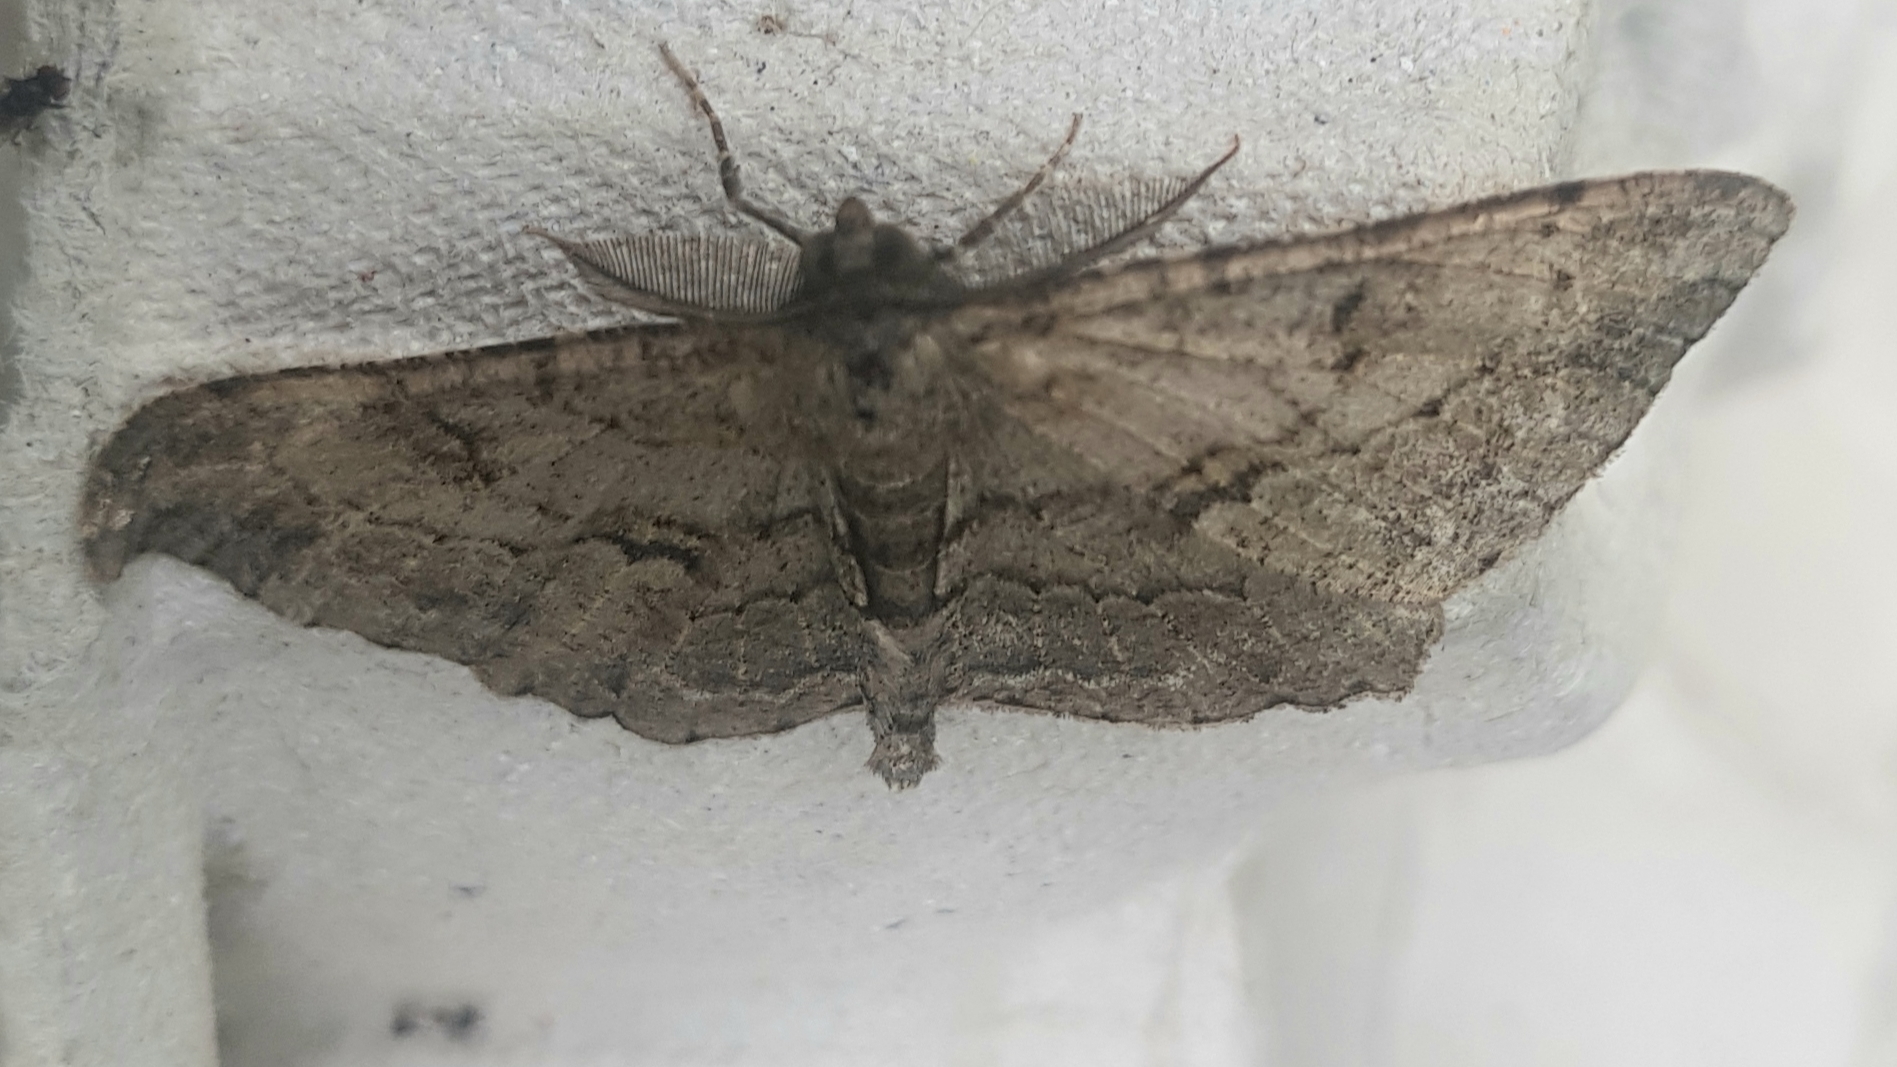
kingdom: Animalia
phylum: Arthropoda
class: Insecta
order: Lepidoptera
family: Geometridae
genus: Peribatodes
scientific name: Peribatodes rhomboidaria
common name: Willow beauty
